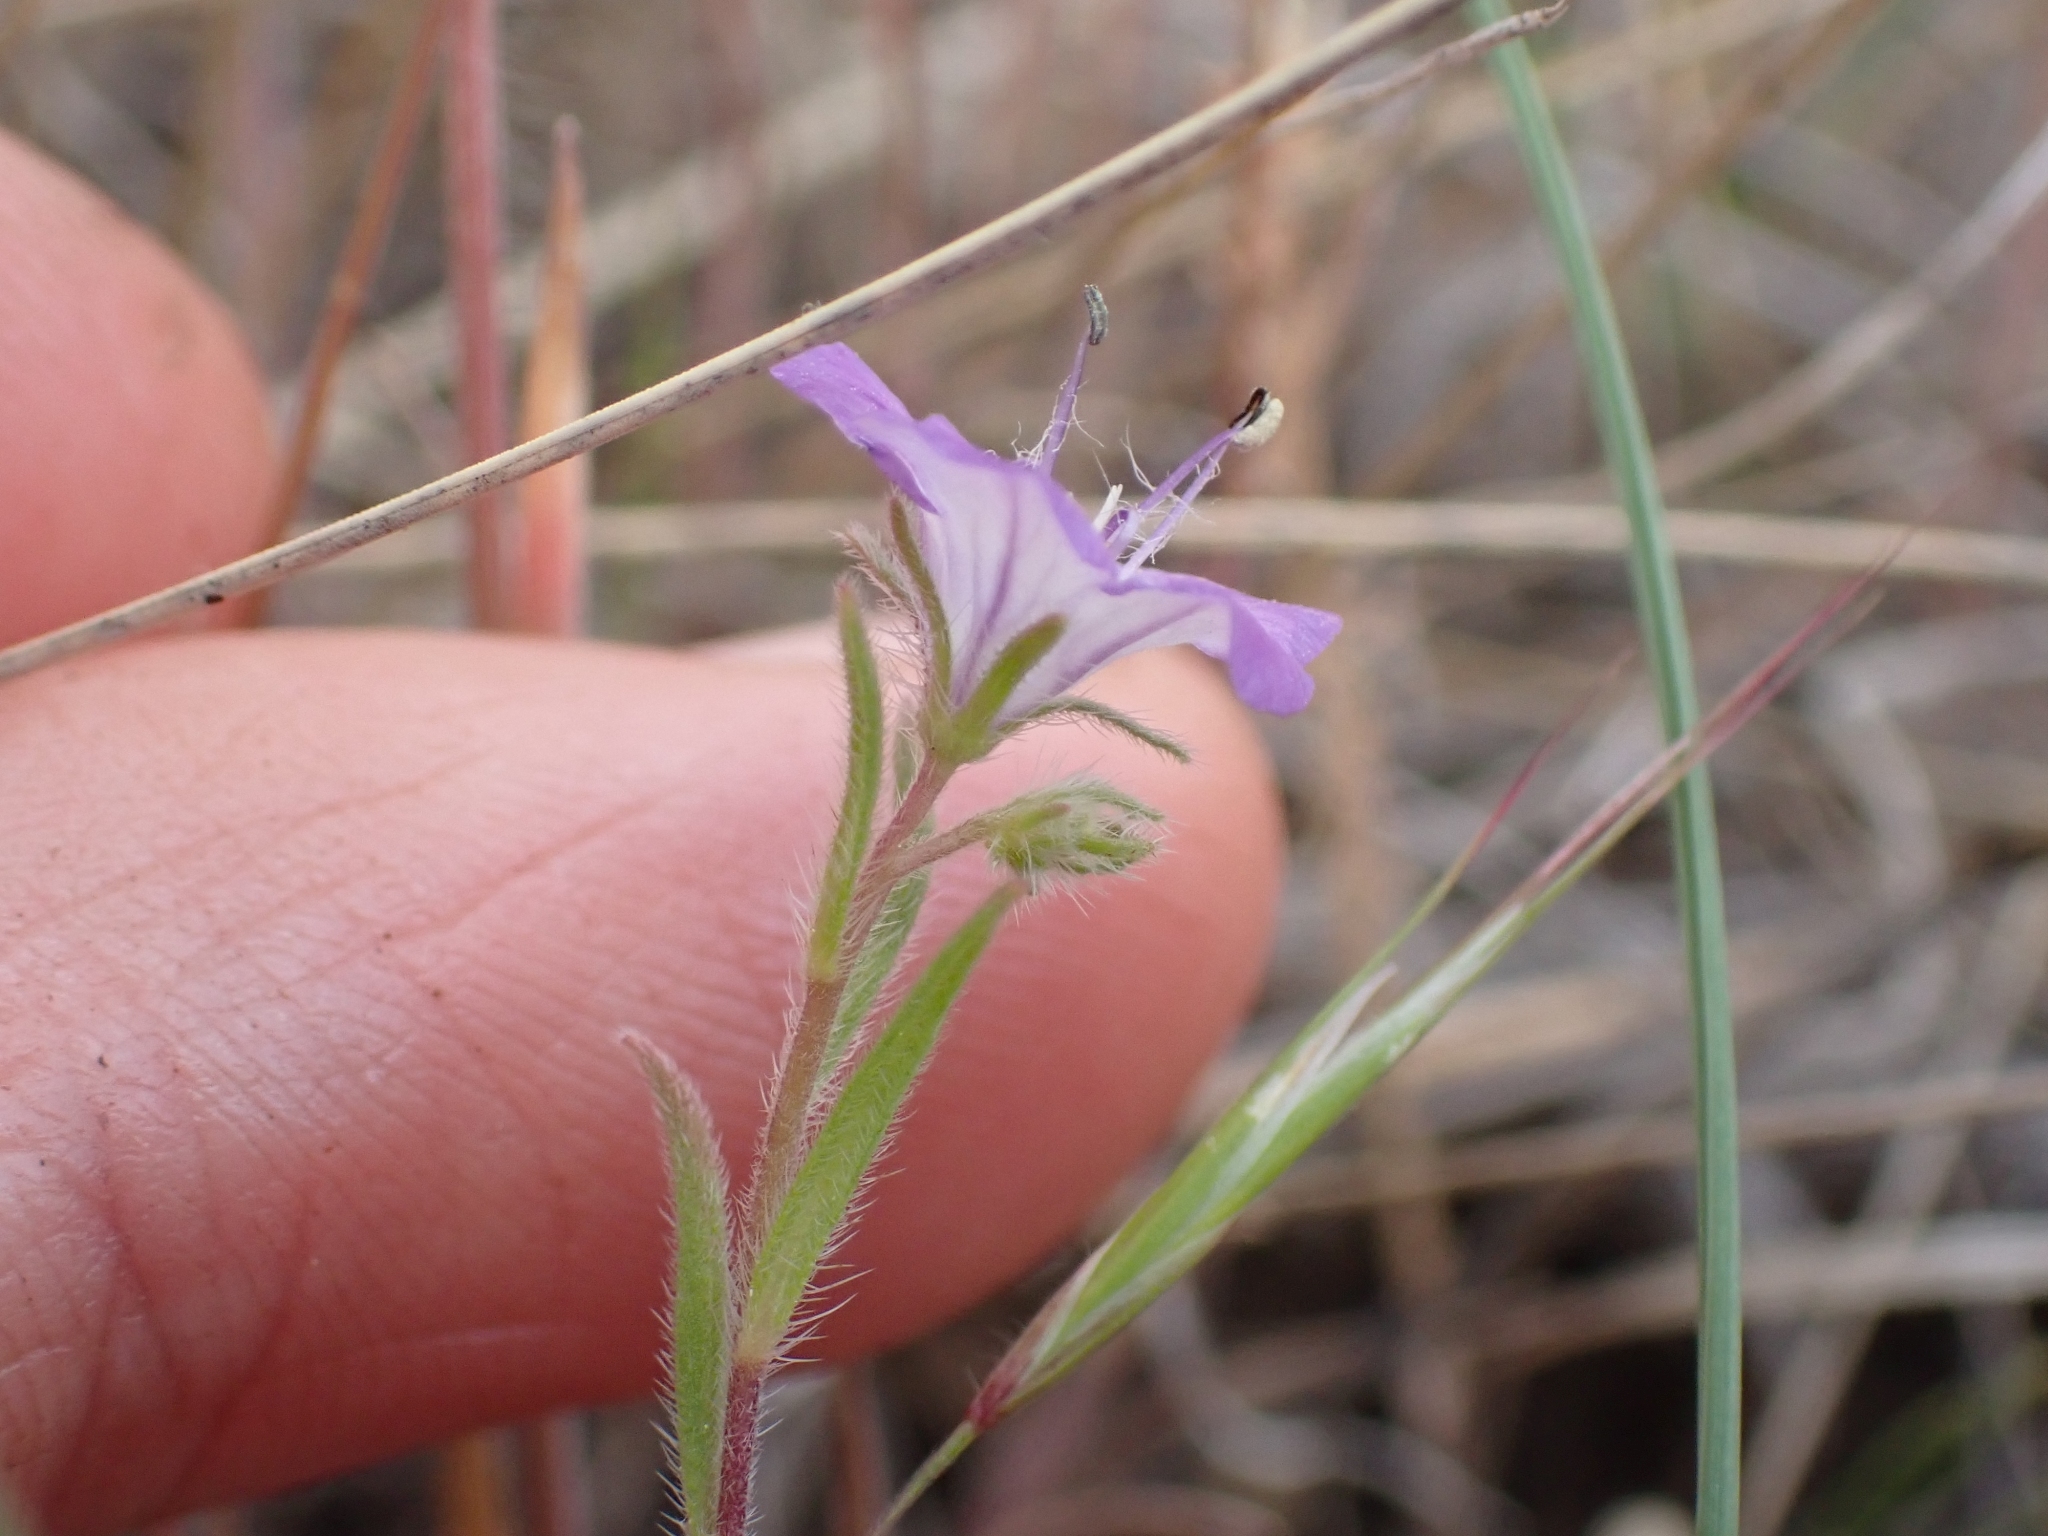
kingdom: Plantae
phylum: Tracheophyta
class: Magnoliopsida
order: Boraginales
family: Hydrophyllaceae
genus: Phacelia
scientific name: Phacelia linearis
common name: Linear-leaved phacelia
